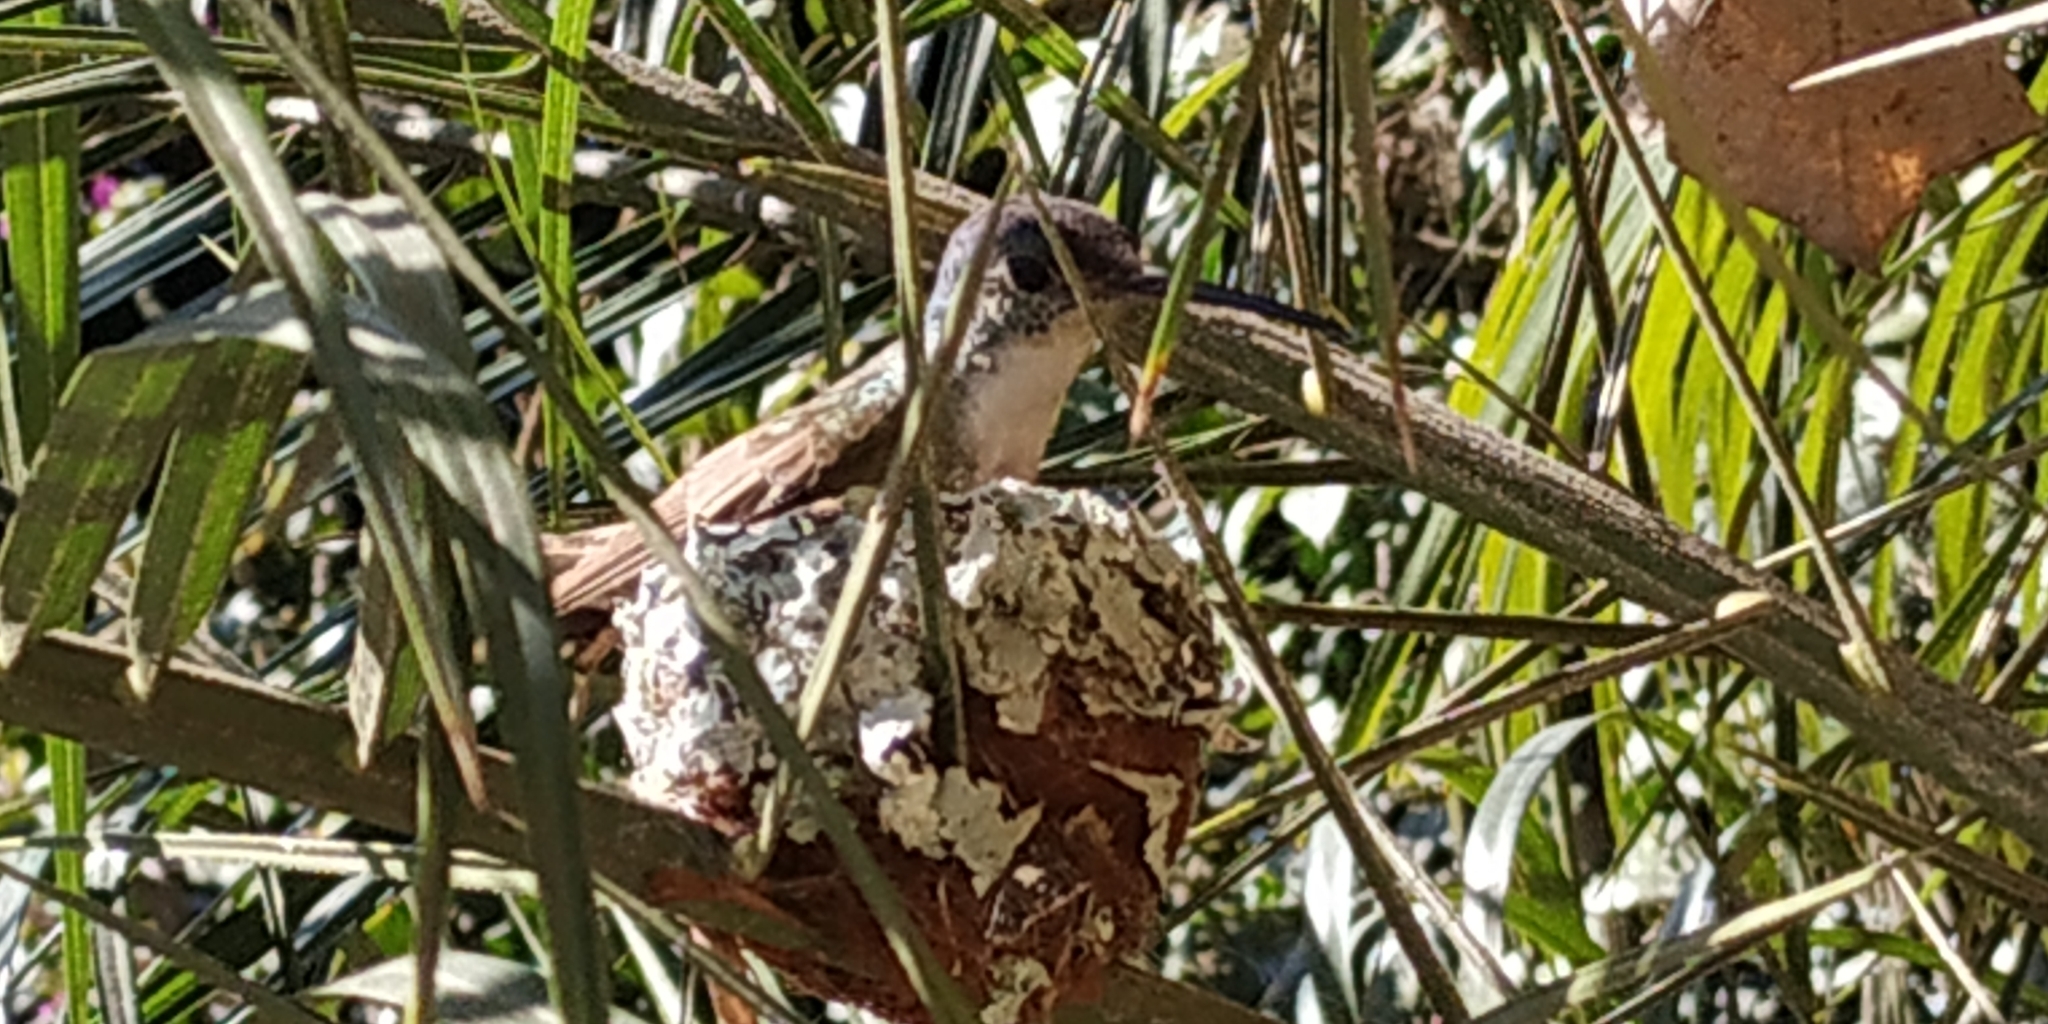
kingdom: Animalia
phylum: Chordata
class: Aves
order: Apodiformes
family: Trochilidae
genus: Saucerottia
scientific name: Saucerottia cyanocephala
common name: Azure-crowned hummingbird
